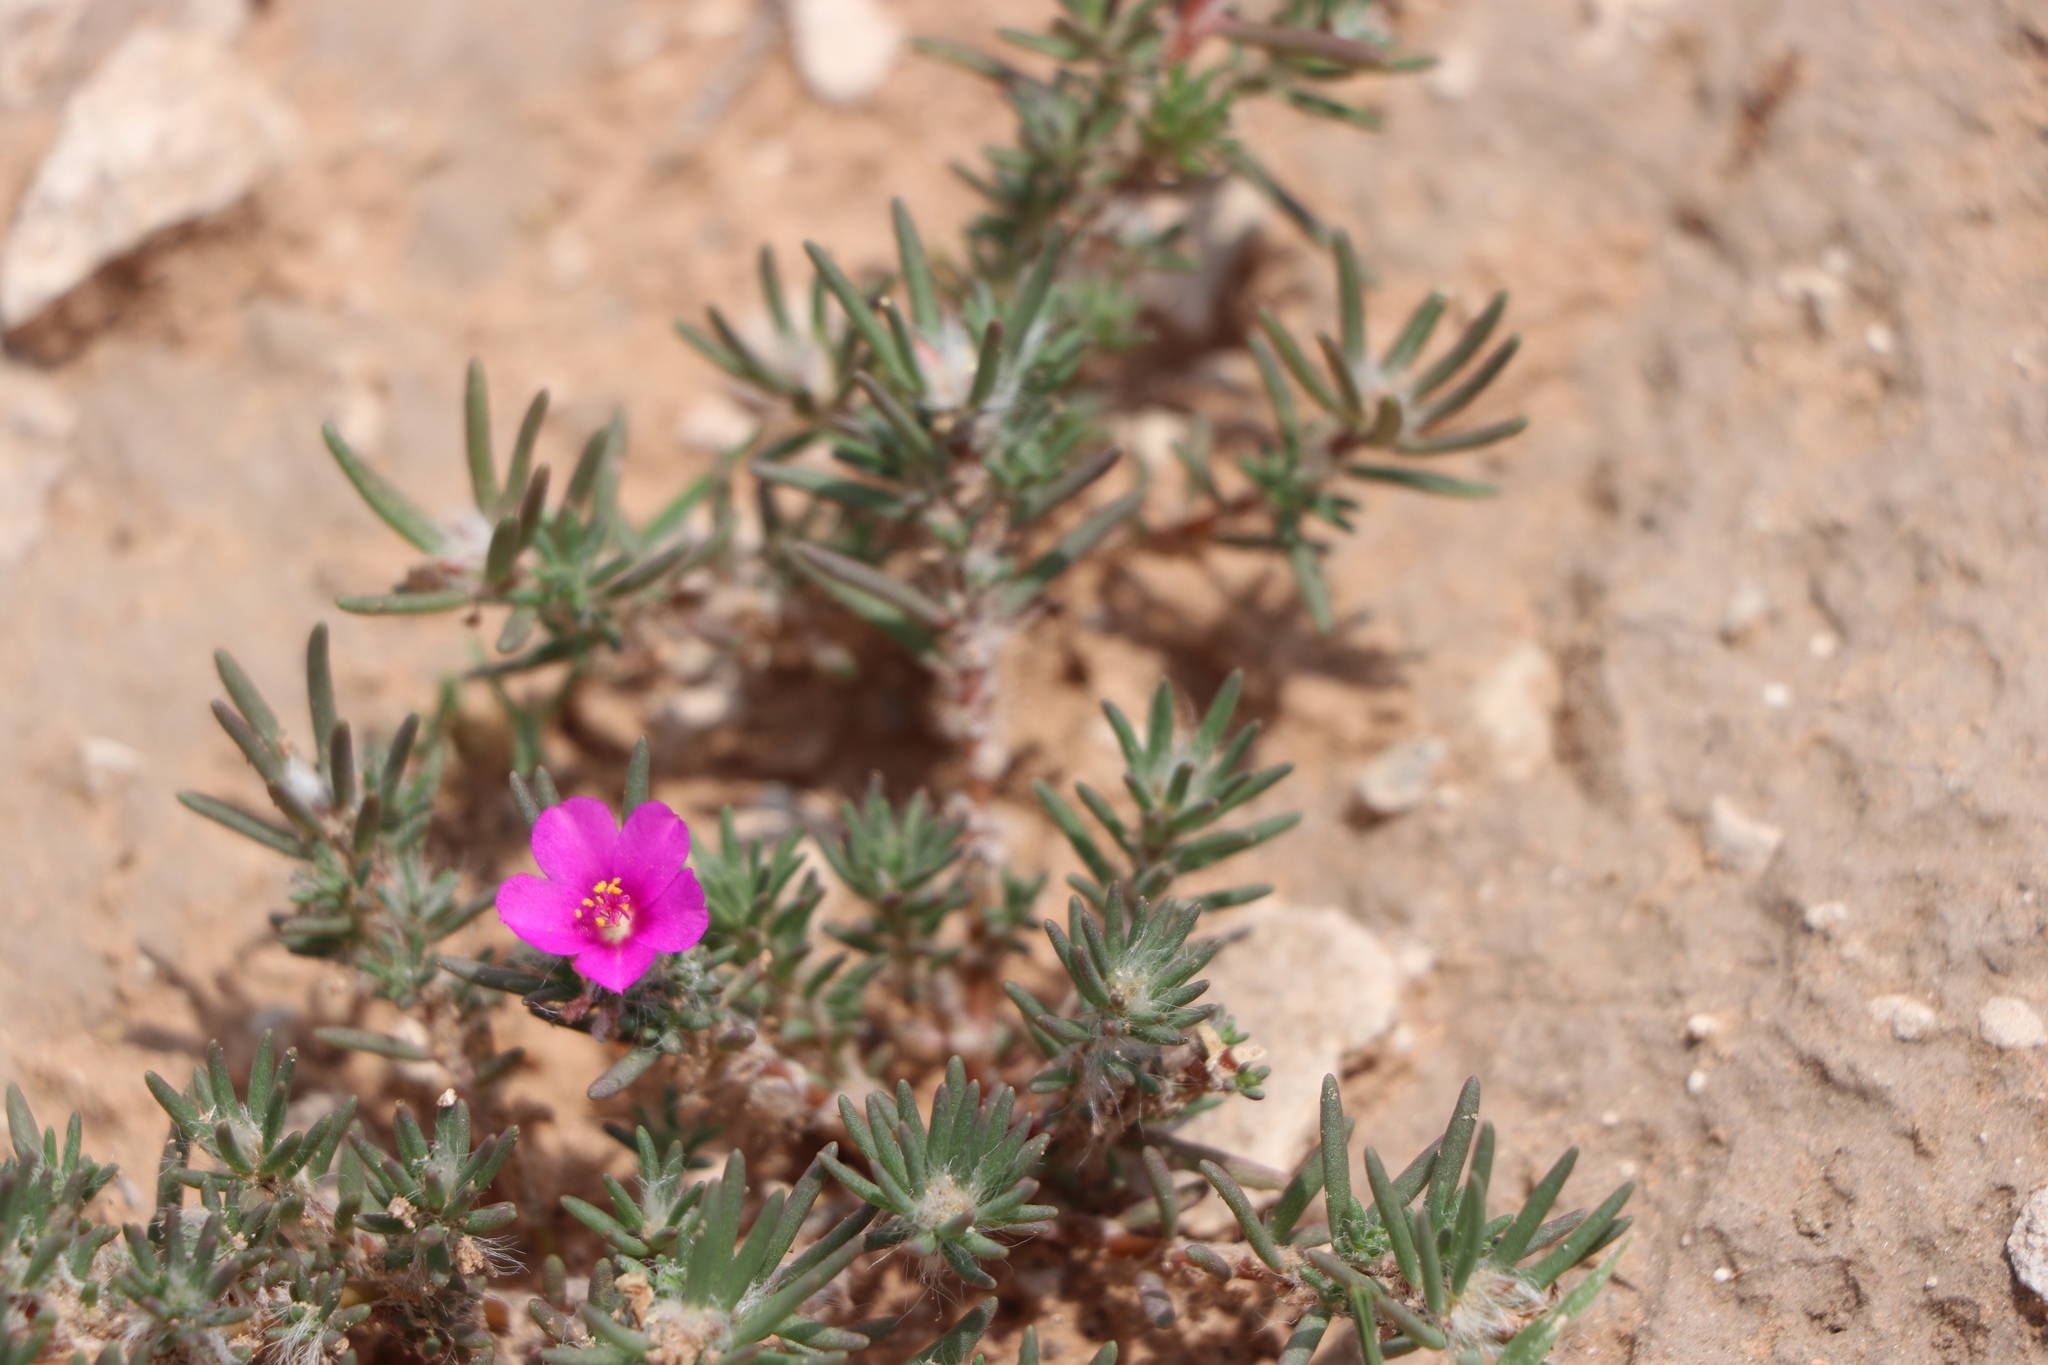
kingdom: Plantae
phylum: Tracheophyta
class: Magnoliopsida
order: Caryophyllales
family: Portulacaceae
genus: Portulaca
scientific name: Portulaca pilosa
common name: Kiss me quick
